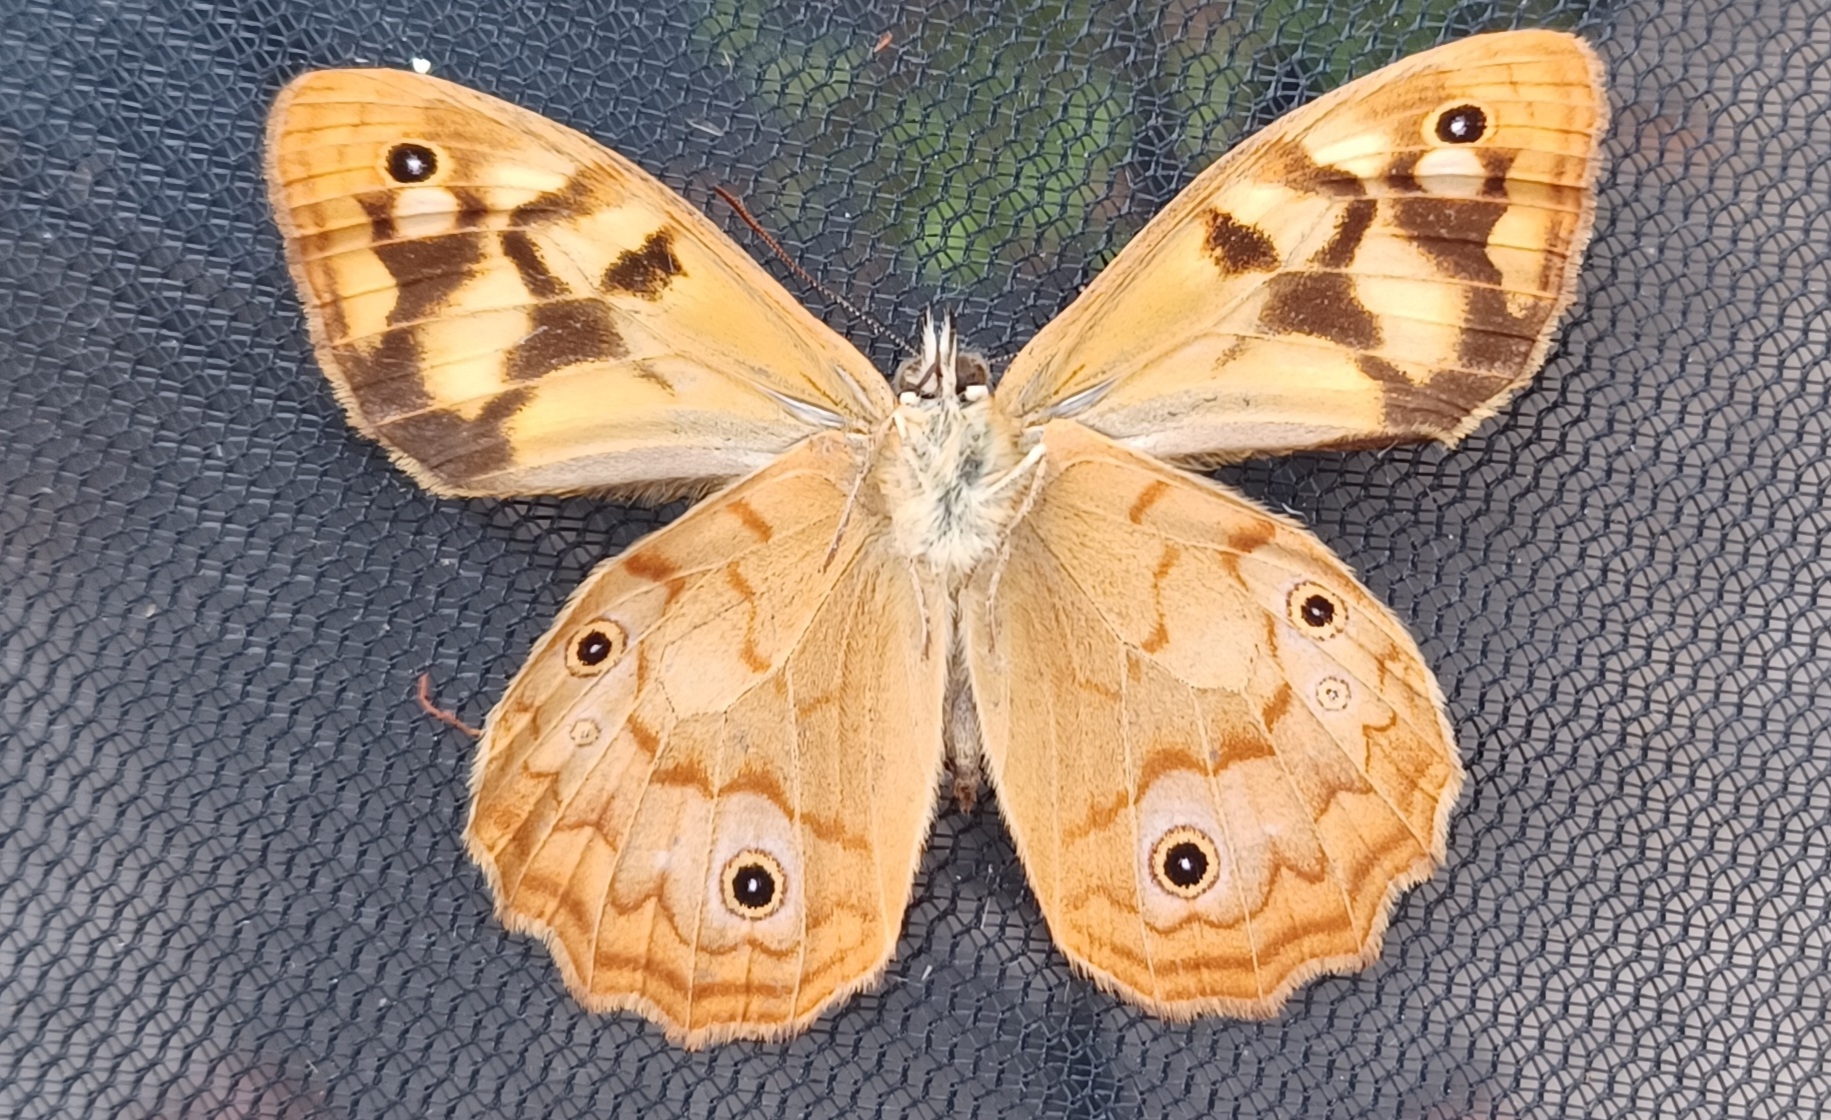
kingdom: Animalia
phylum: Arthropoda
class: Insecta
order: Lepidoptera
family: Nymphalidae
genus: Heteronympha
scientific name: Heteronympha paradelpha
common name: Spotted brown
